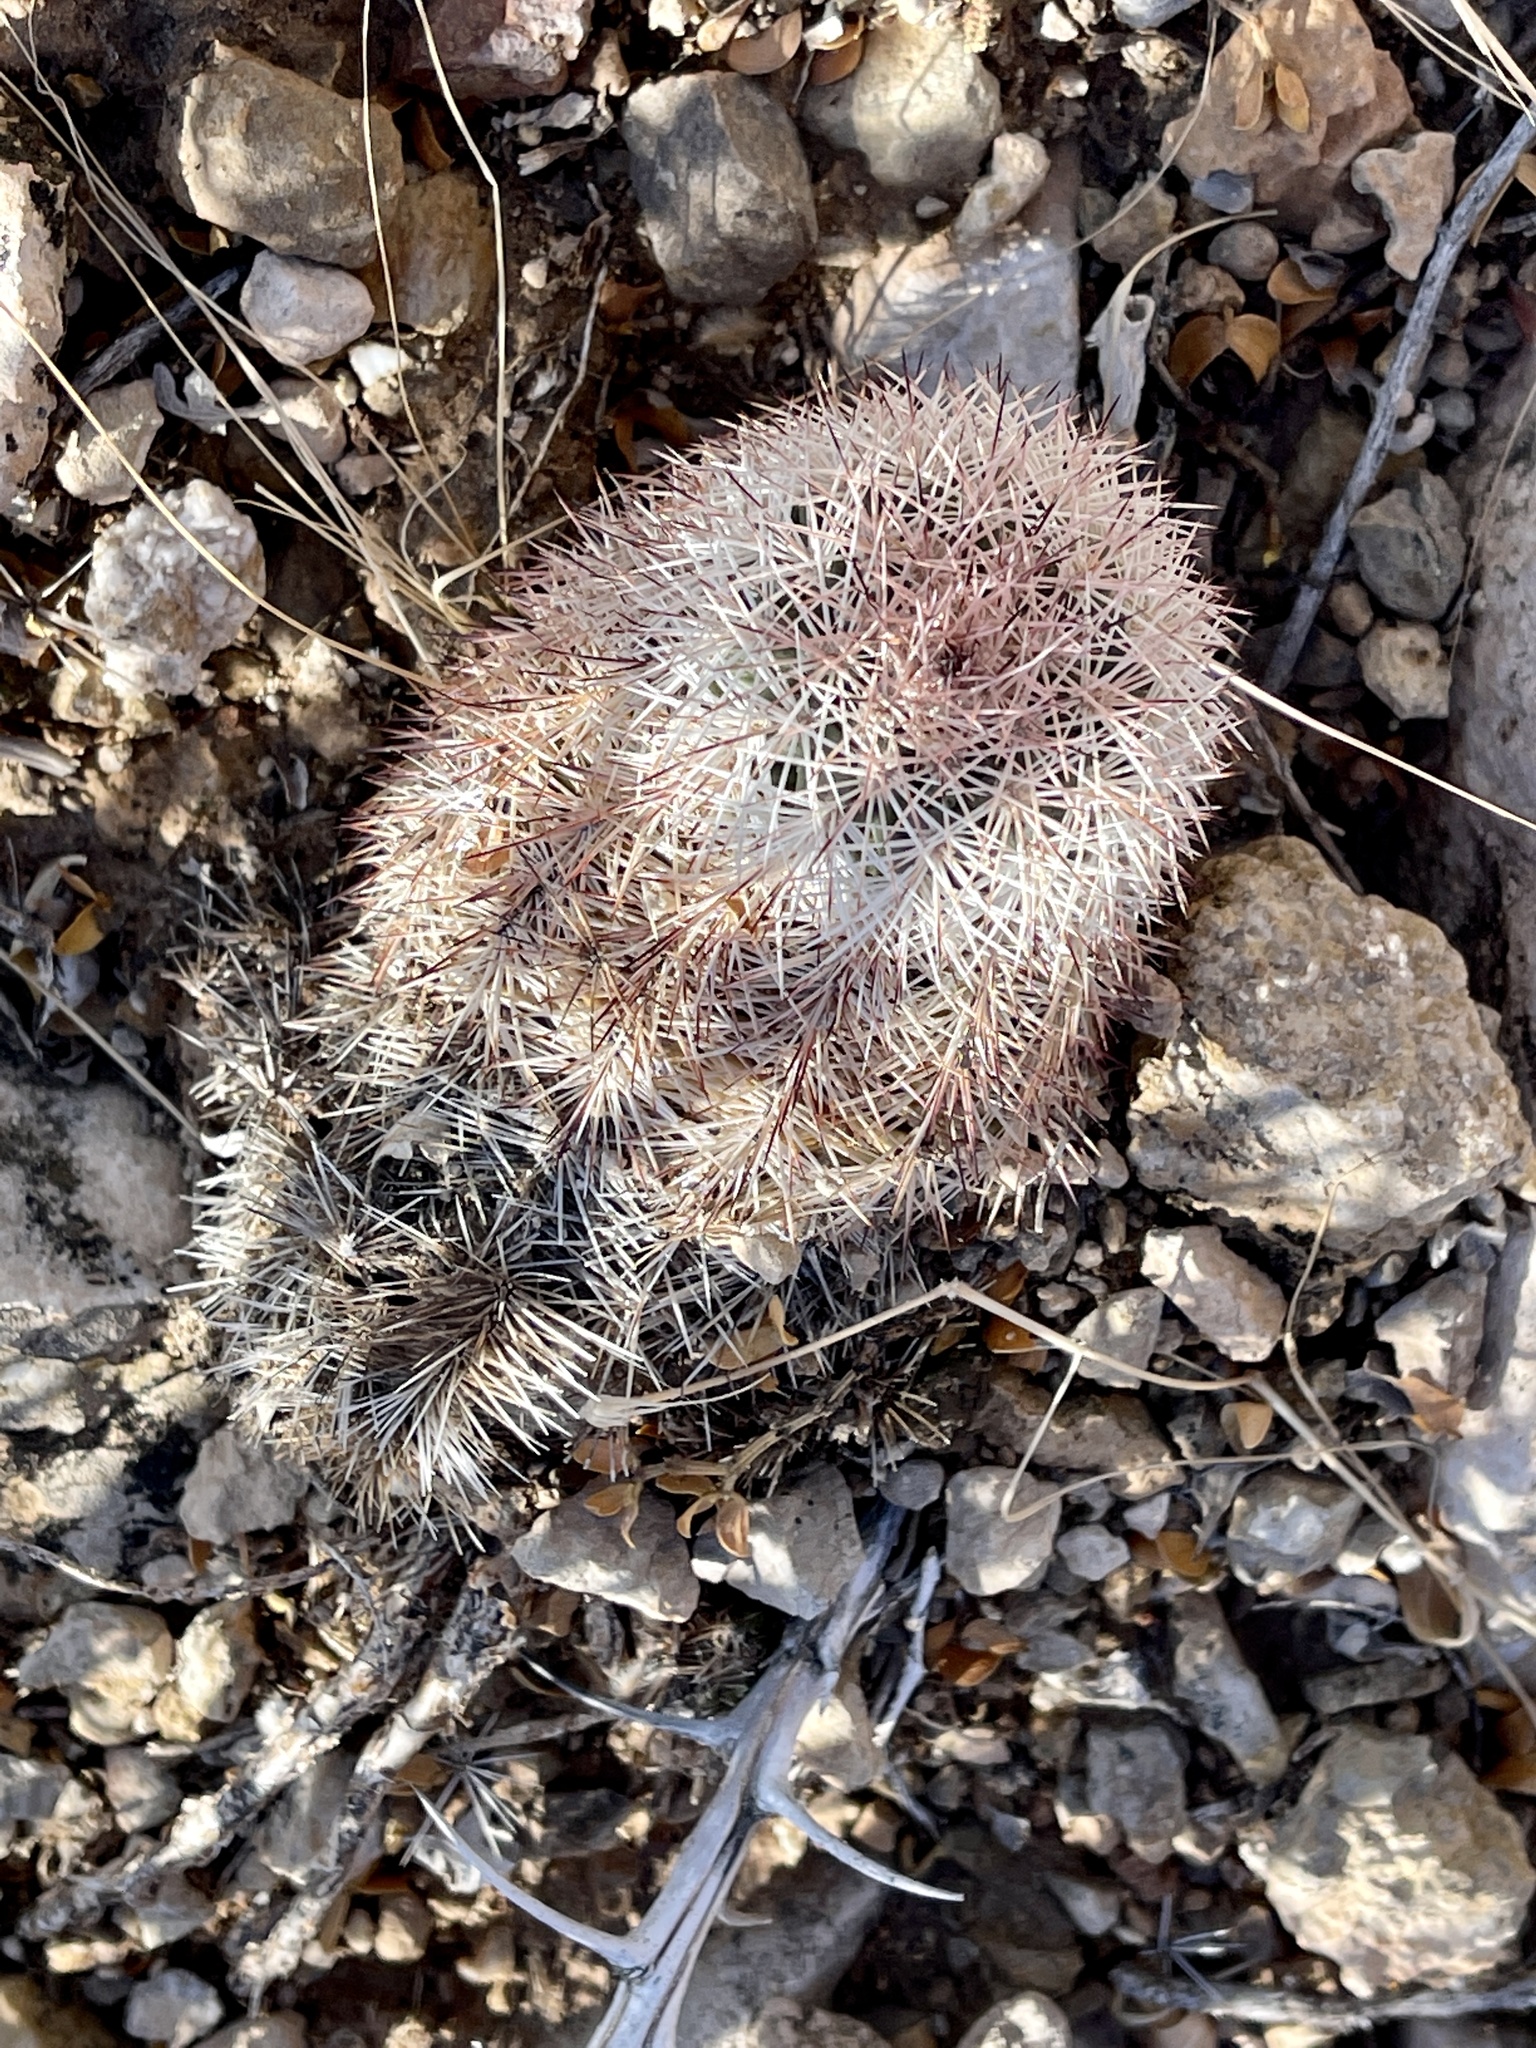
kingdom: Plantae
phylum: Tracheophyta
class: Magnoliopsida
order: Caryophyllales
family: Cactaceae
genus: Echinocereus
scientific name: Echinocereus dasyacanthus
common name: Spiny hedgehog cactus
